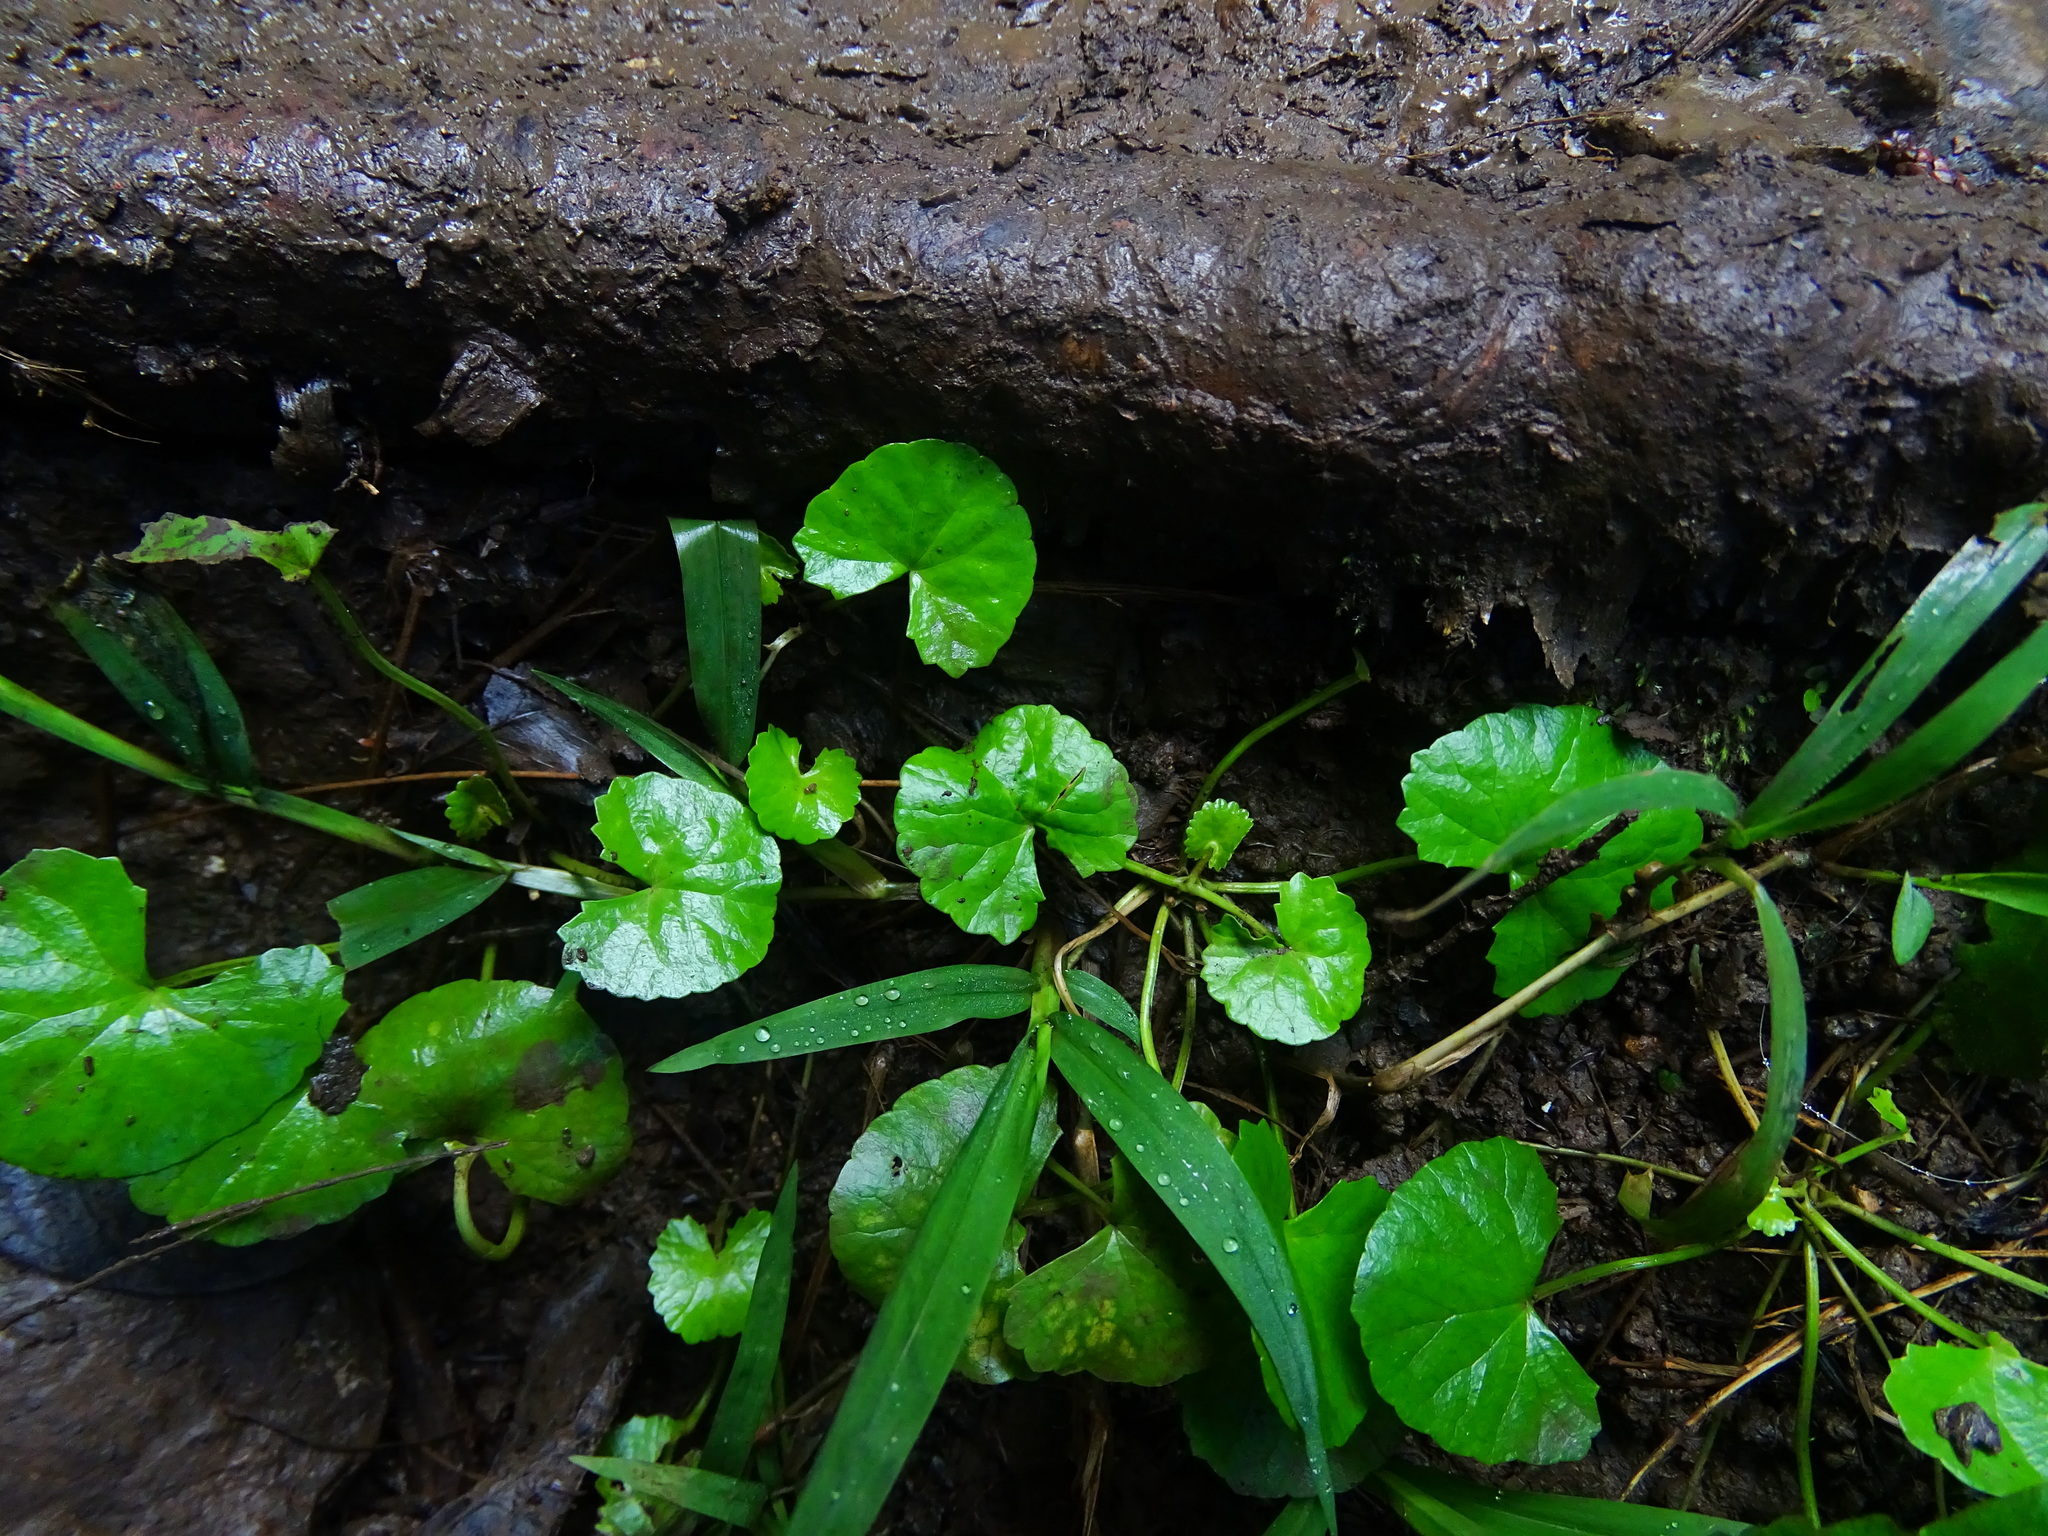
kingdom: Plantae
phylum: Tracheophyta
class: Magnoliopsida
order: Apiales
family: Apiaceae
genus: Centella
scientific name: Centella asiatica
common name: Spadeleaf
